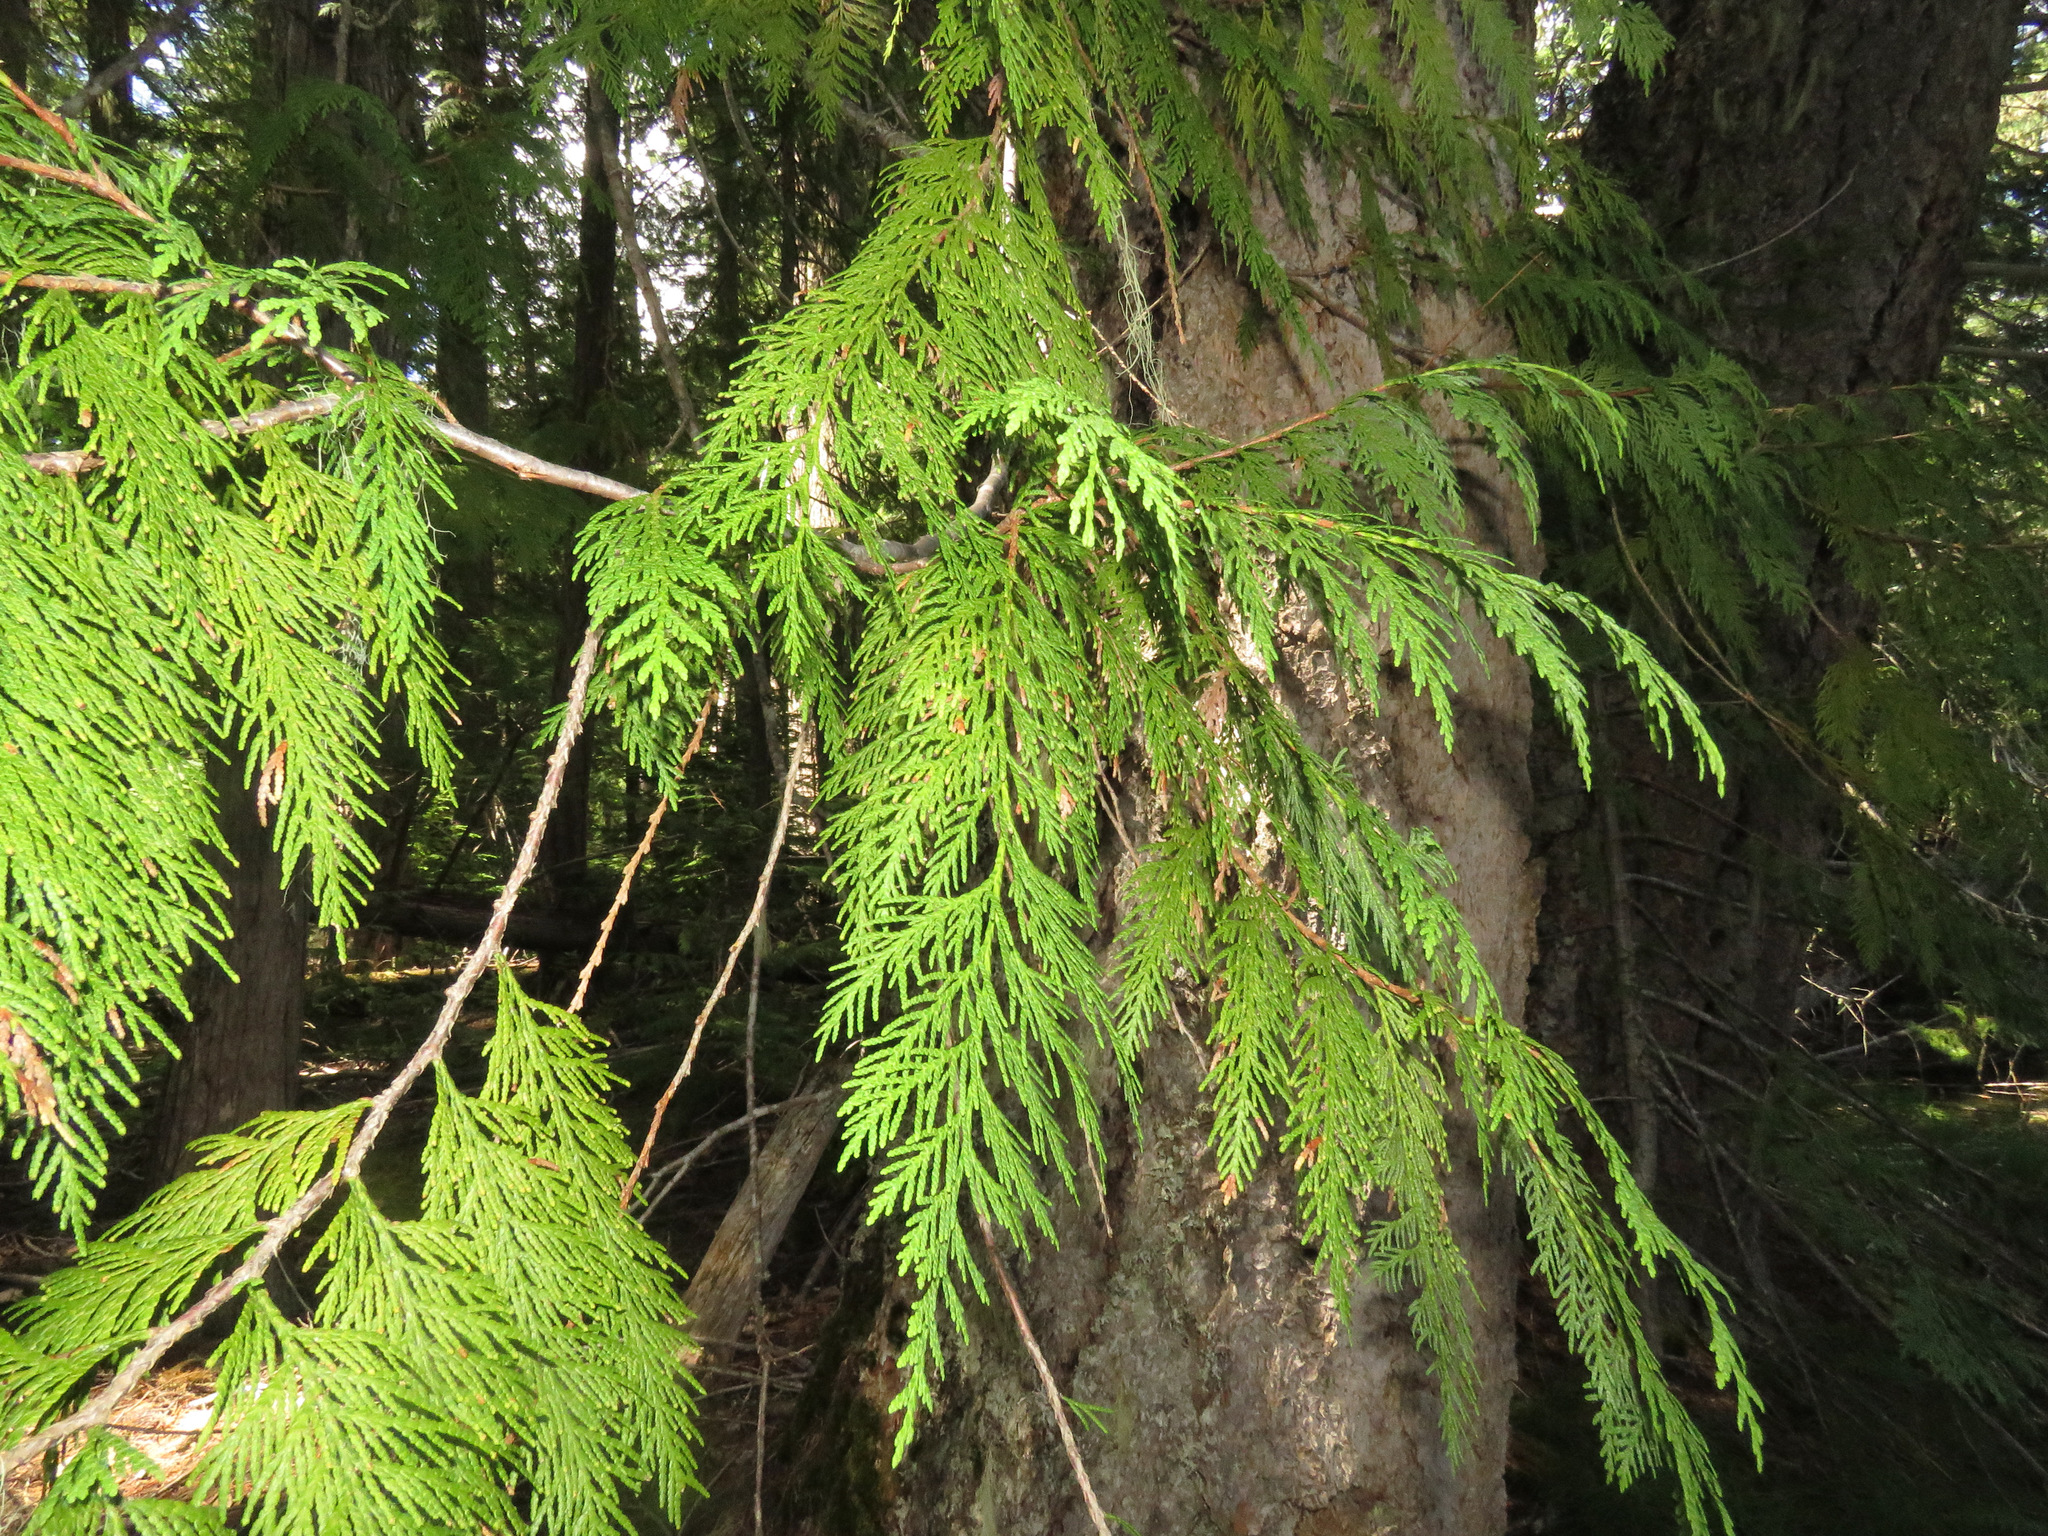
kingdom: Plantae
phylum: Tracheophyta
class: Pinopsida
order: Pinales
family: Cupressaceae
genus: Thuja
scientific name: Thuja plicata
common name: Western red-cedar
